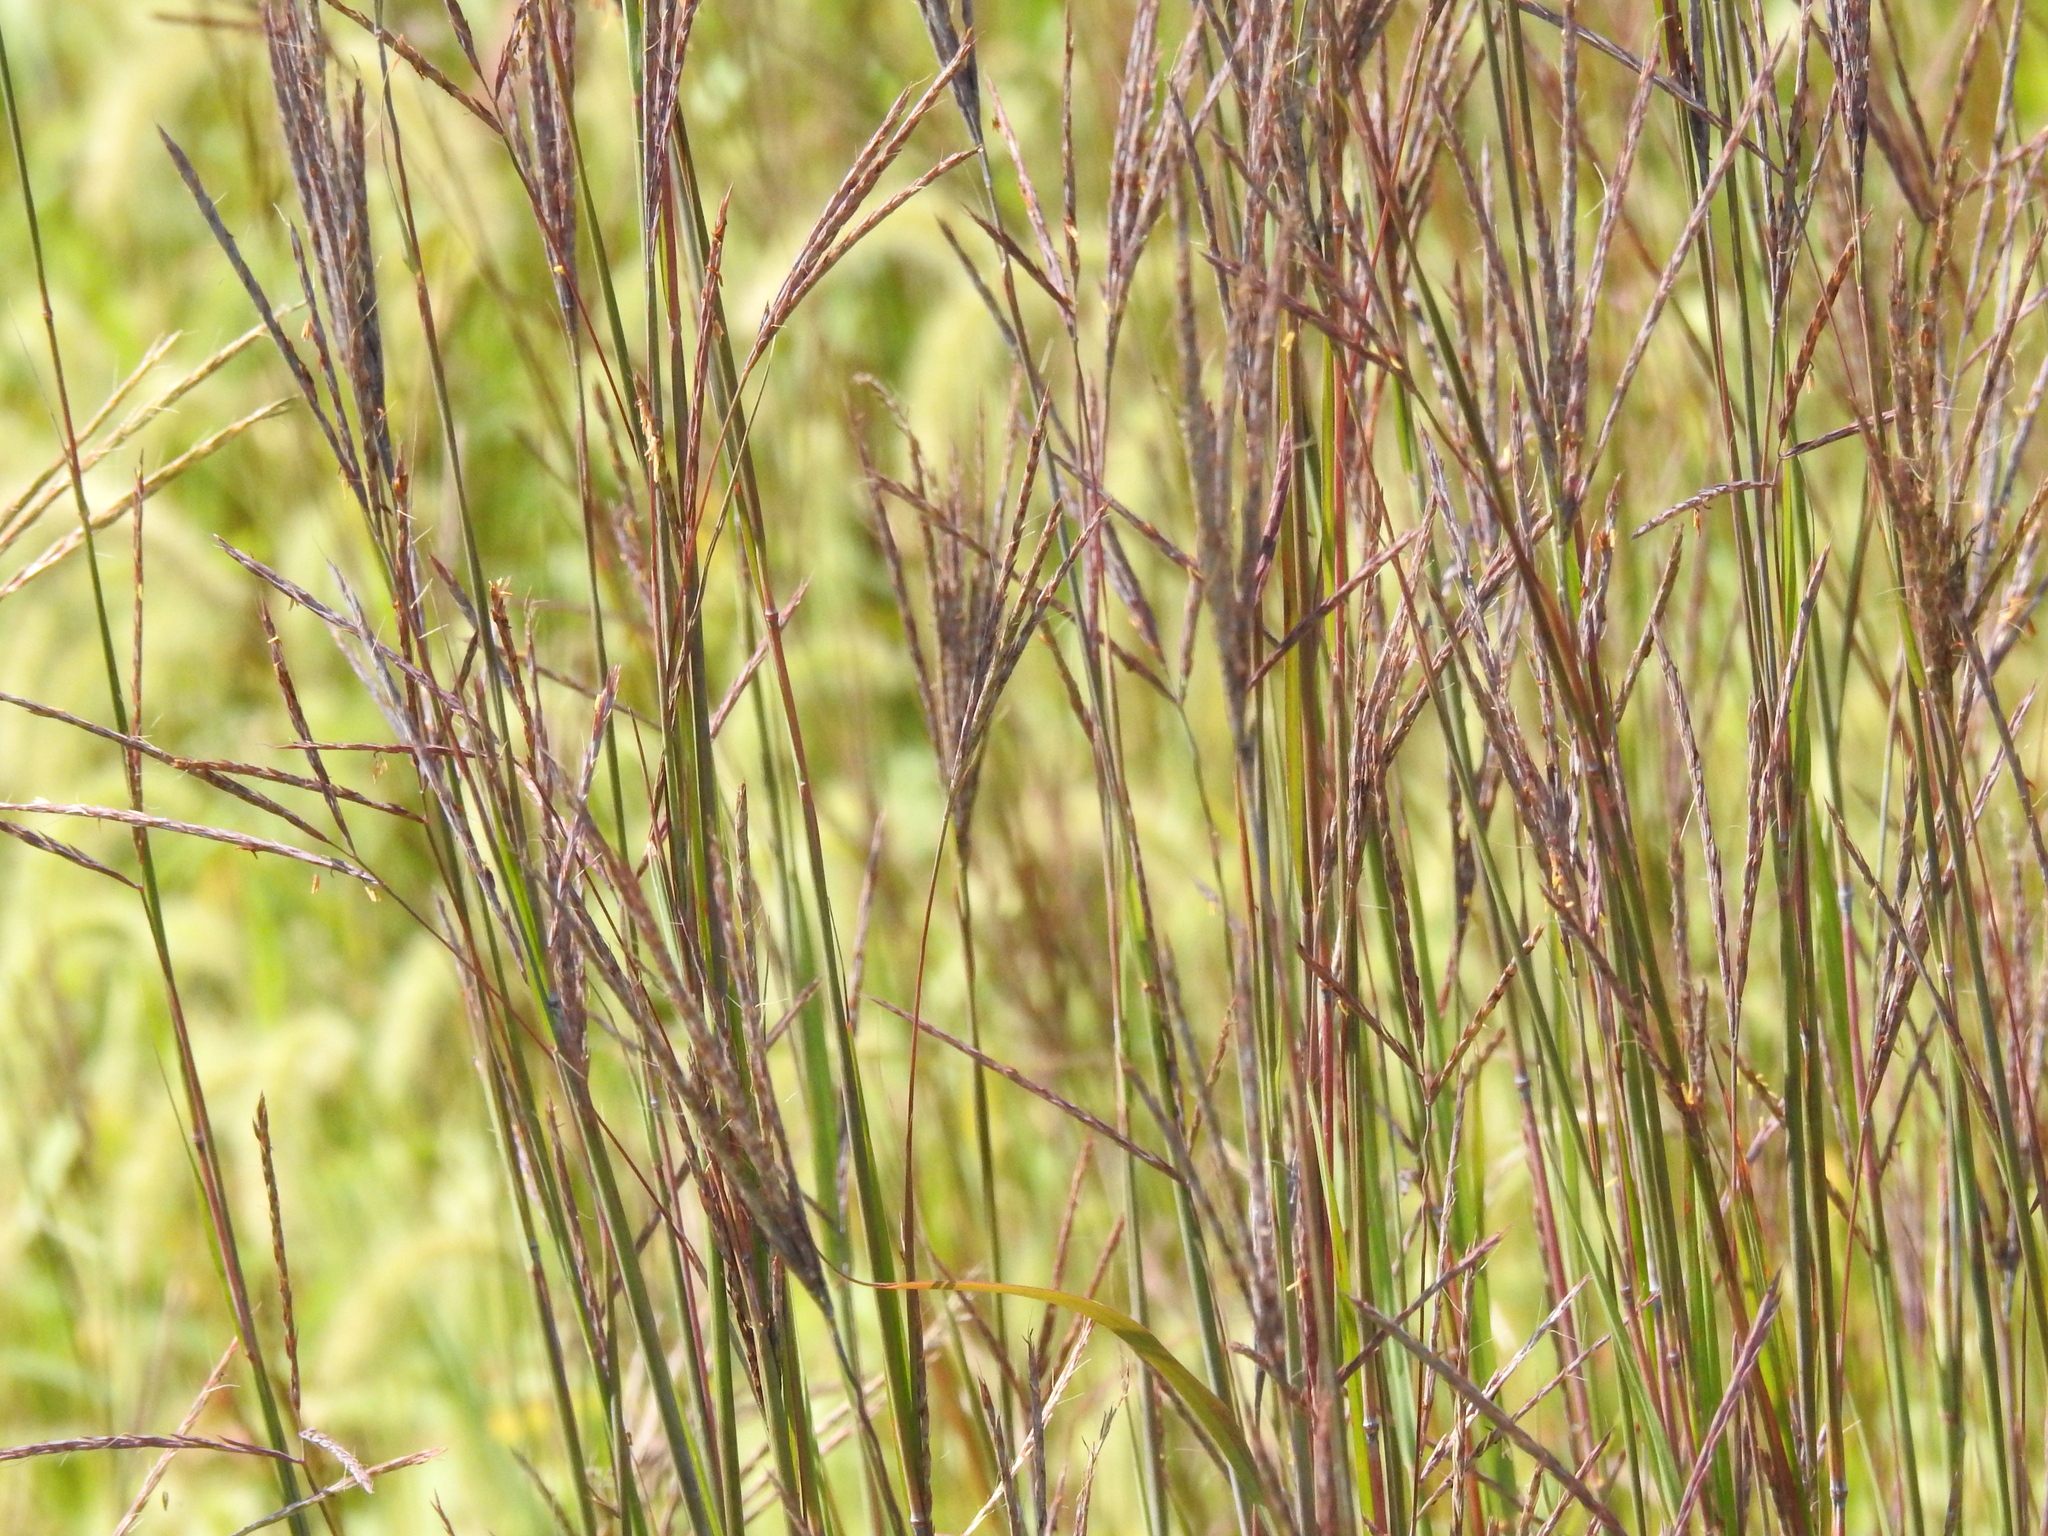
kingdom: Plantae
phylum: Tracheophyta
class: Liliopsida
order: Poales
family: Poaceae
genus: Andropogon
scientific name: Andropogon gerardi
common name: Big bluestem
